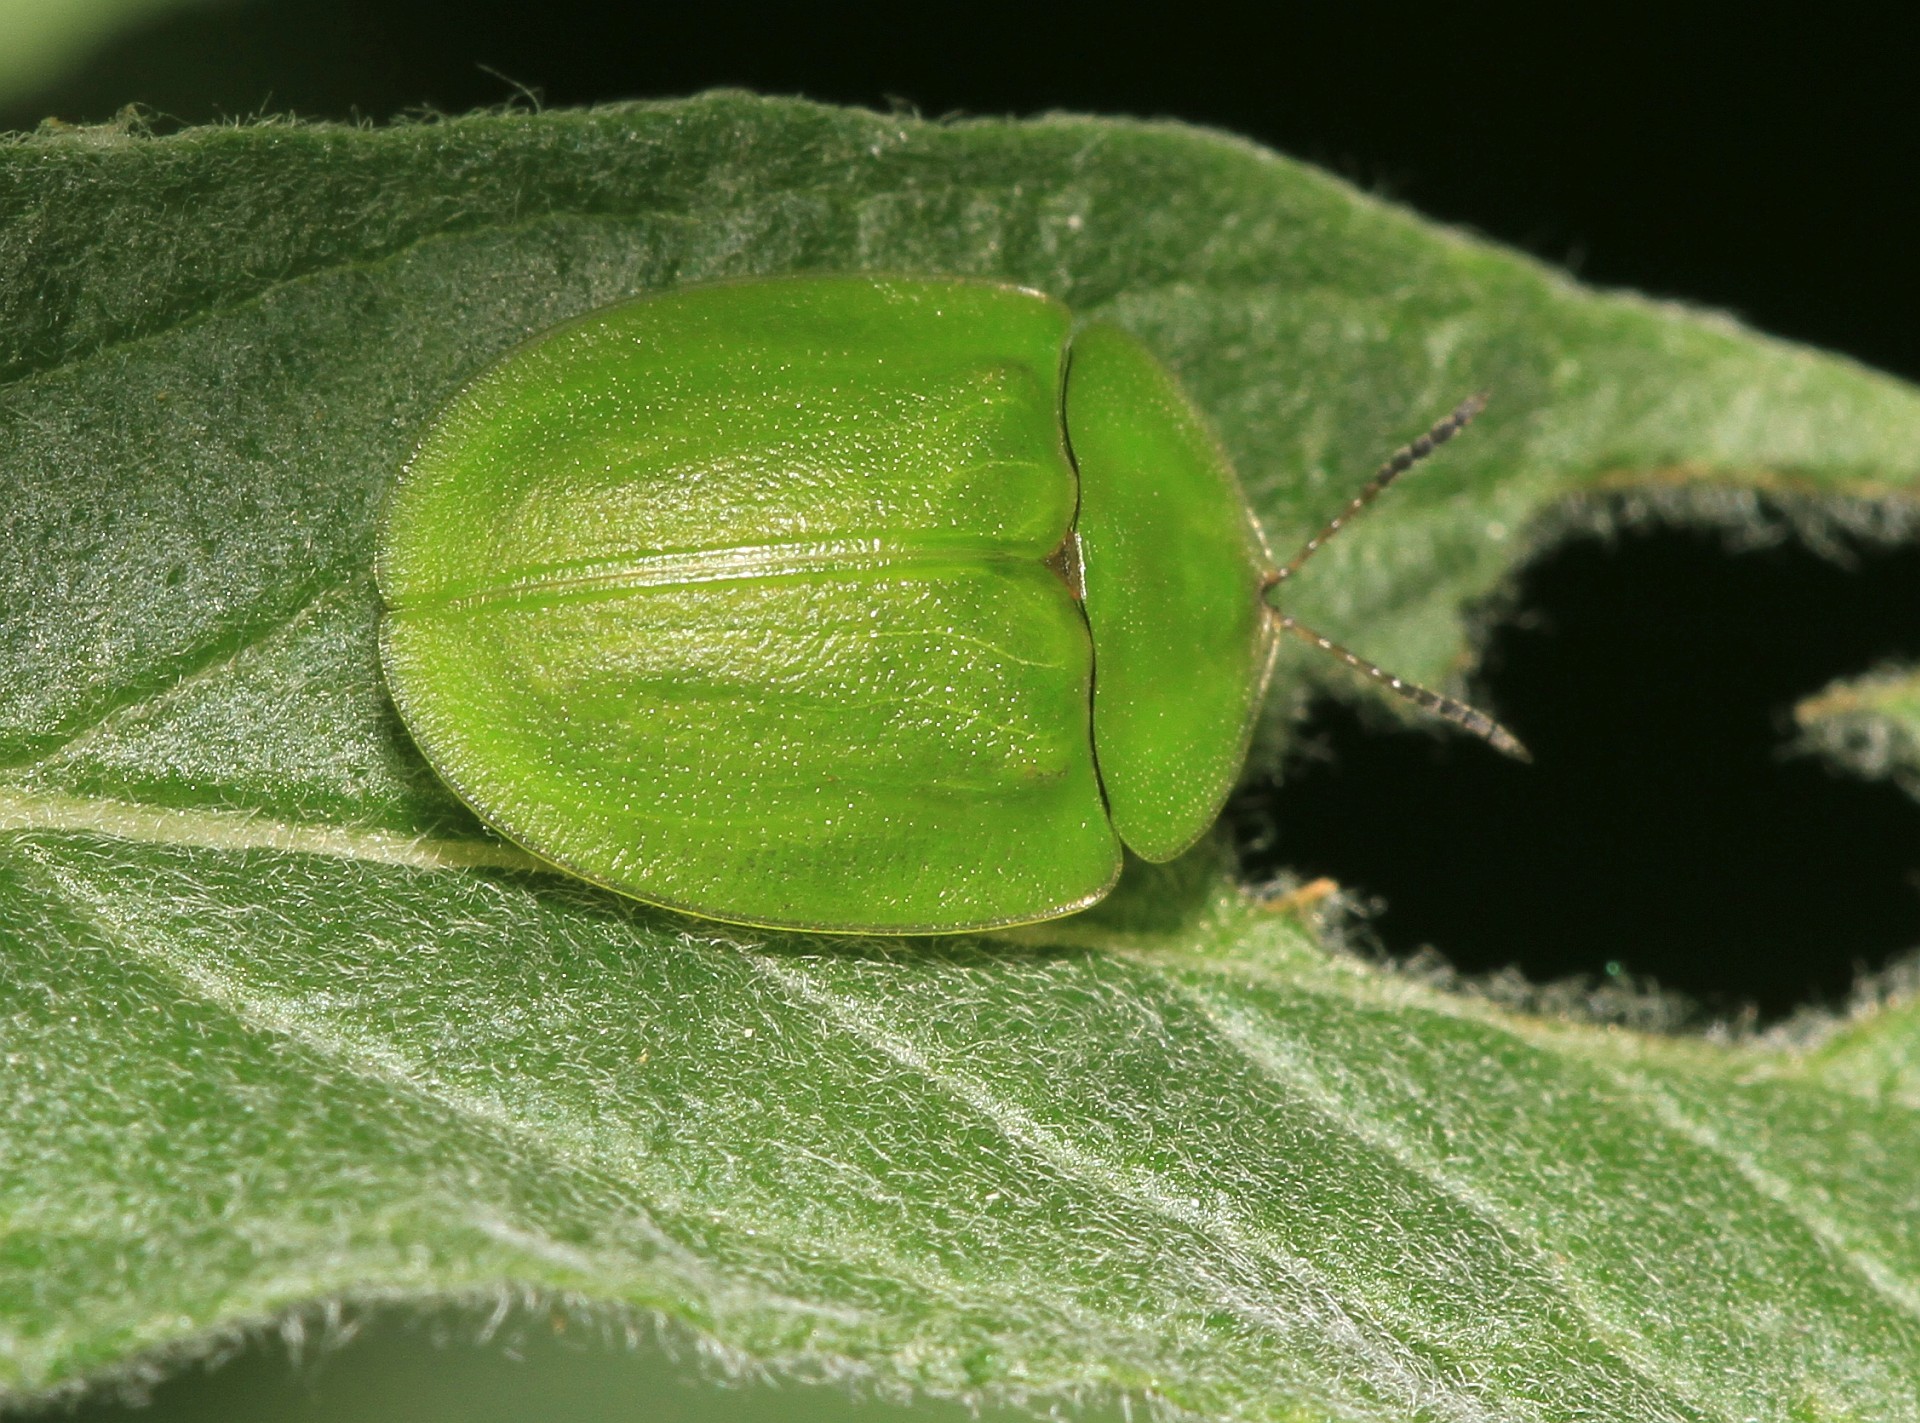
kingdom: Animalia
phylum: Arthropoda
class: Insecta
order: Coleoptera
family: Chrysomelidae
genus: Cassida
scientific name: Cassida viridis
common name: Green tortoise beetle
